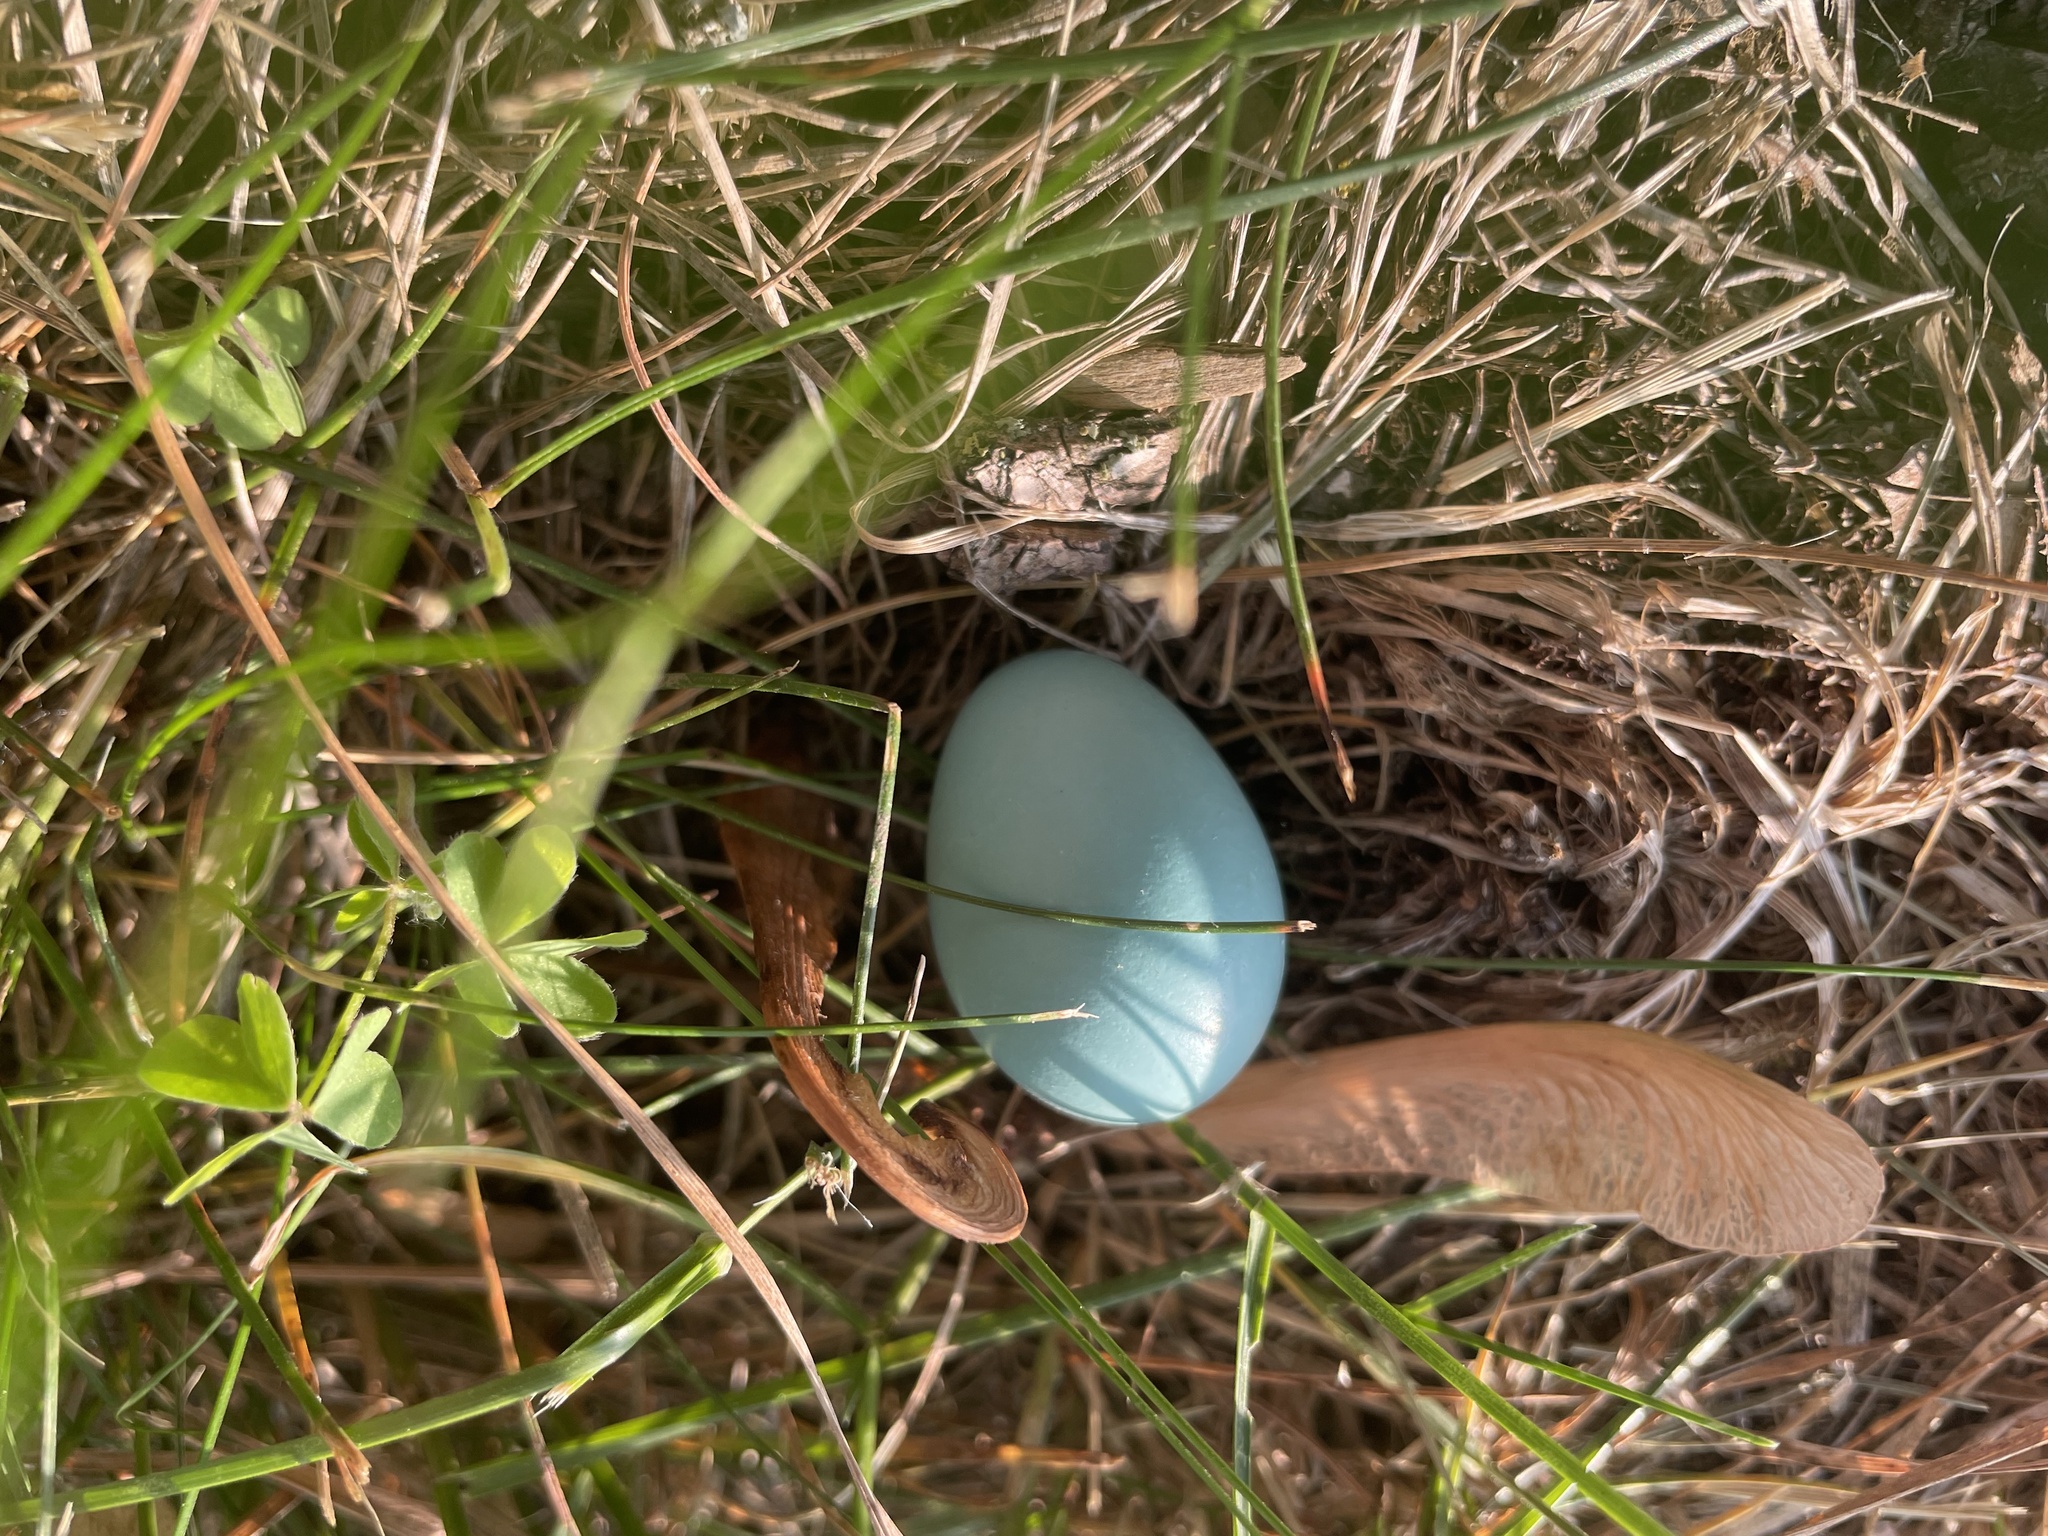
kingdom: Animalia
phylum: Chordata
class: Aves
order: Passeriformes
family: Turdidae
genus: Turdus
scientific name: Turdus migratorius
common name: American robin
